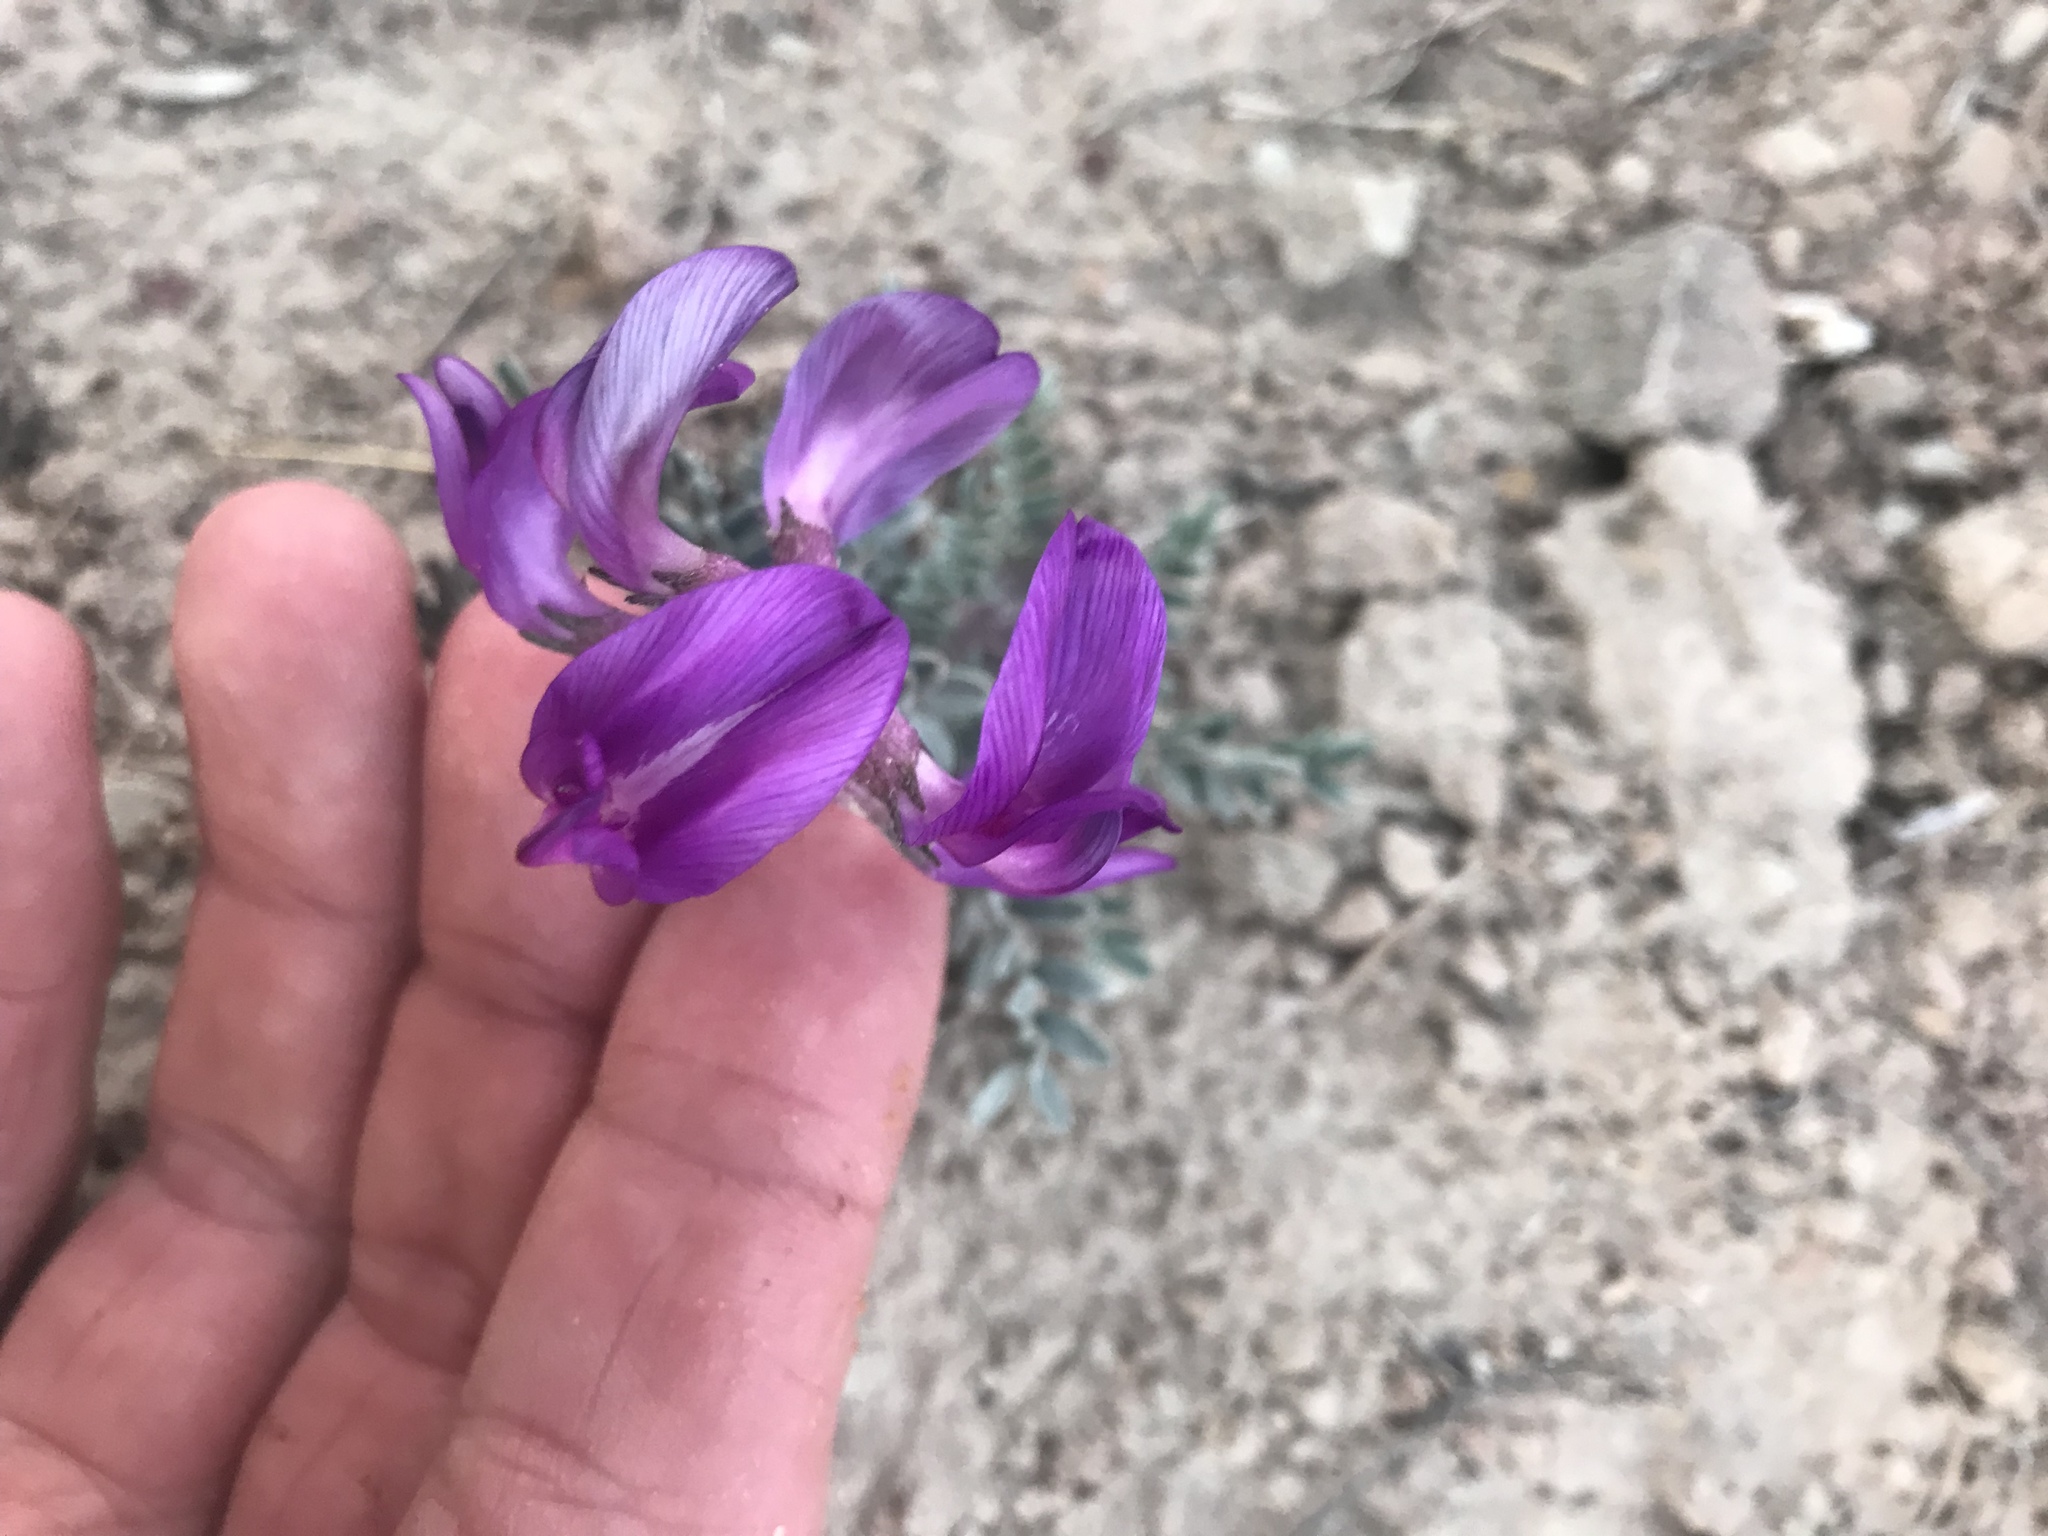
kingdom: Plantae
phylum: Tracheophyta
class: Magnoliopsida
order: Fabales
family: Fabaceae
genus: Astragalus
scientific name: Astragalus missouriensis
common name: Missouri milk-vetch
